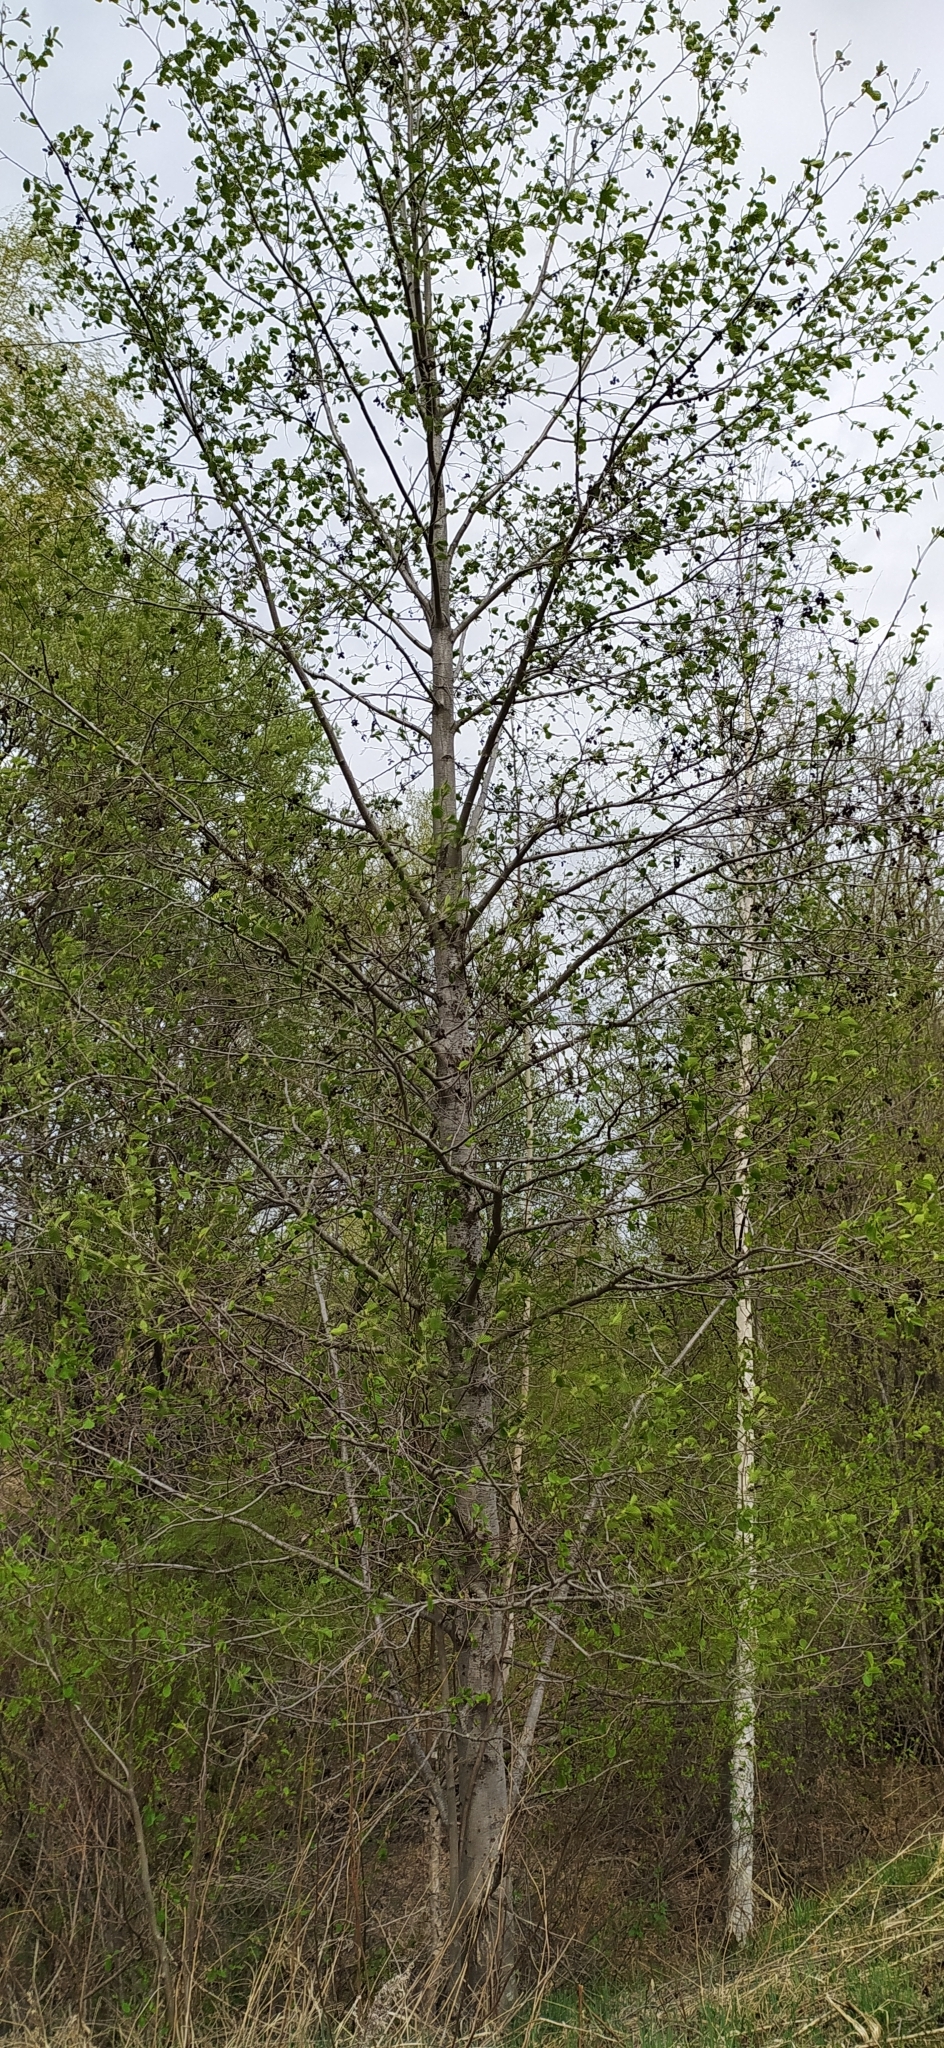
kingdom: Plantae
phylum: Tracheophyta
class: Magnoliopsida
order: Fagales
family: Betulaceae
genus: Alnus
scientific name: Alnus incana
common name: Grey alder
